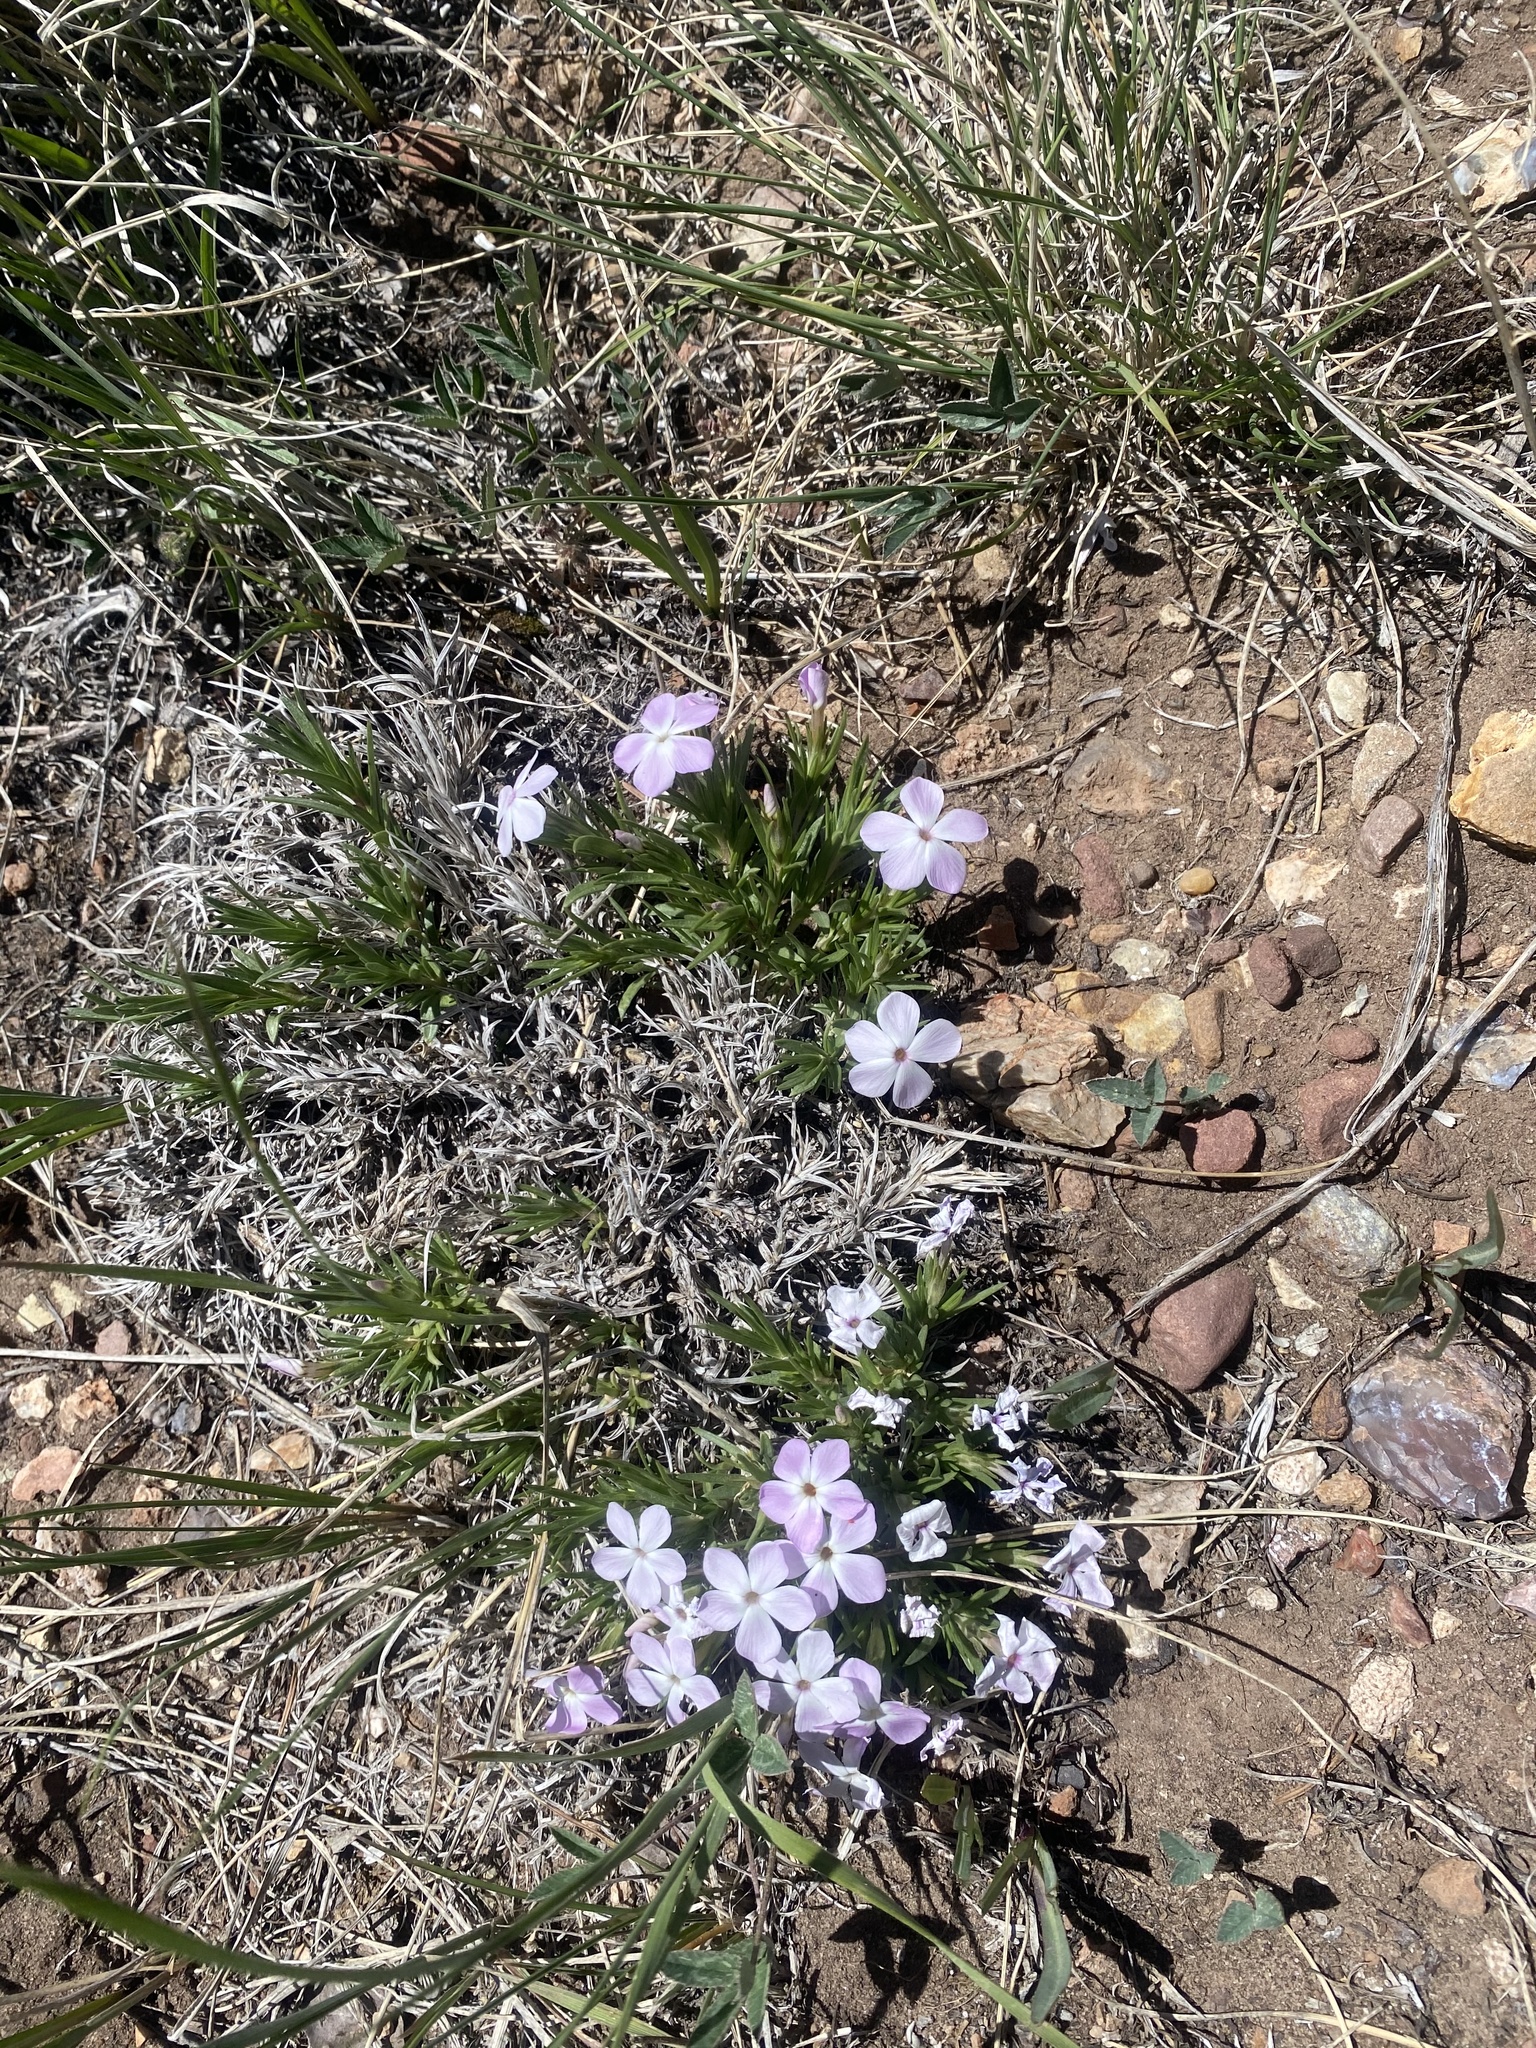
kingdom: Plantae
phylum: Tracheophyta
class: Magnoliopsida
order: Ericales
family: Polemoniaceae
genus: Phlox
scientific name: Phlox multiflora
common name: Rocky mountain phlox
